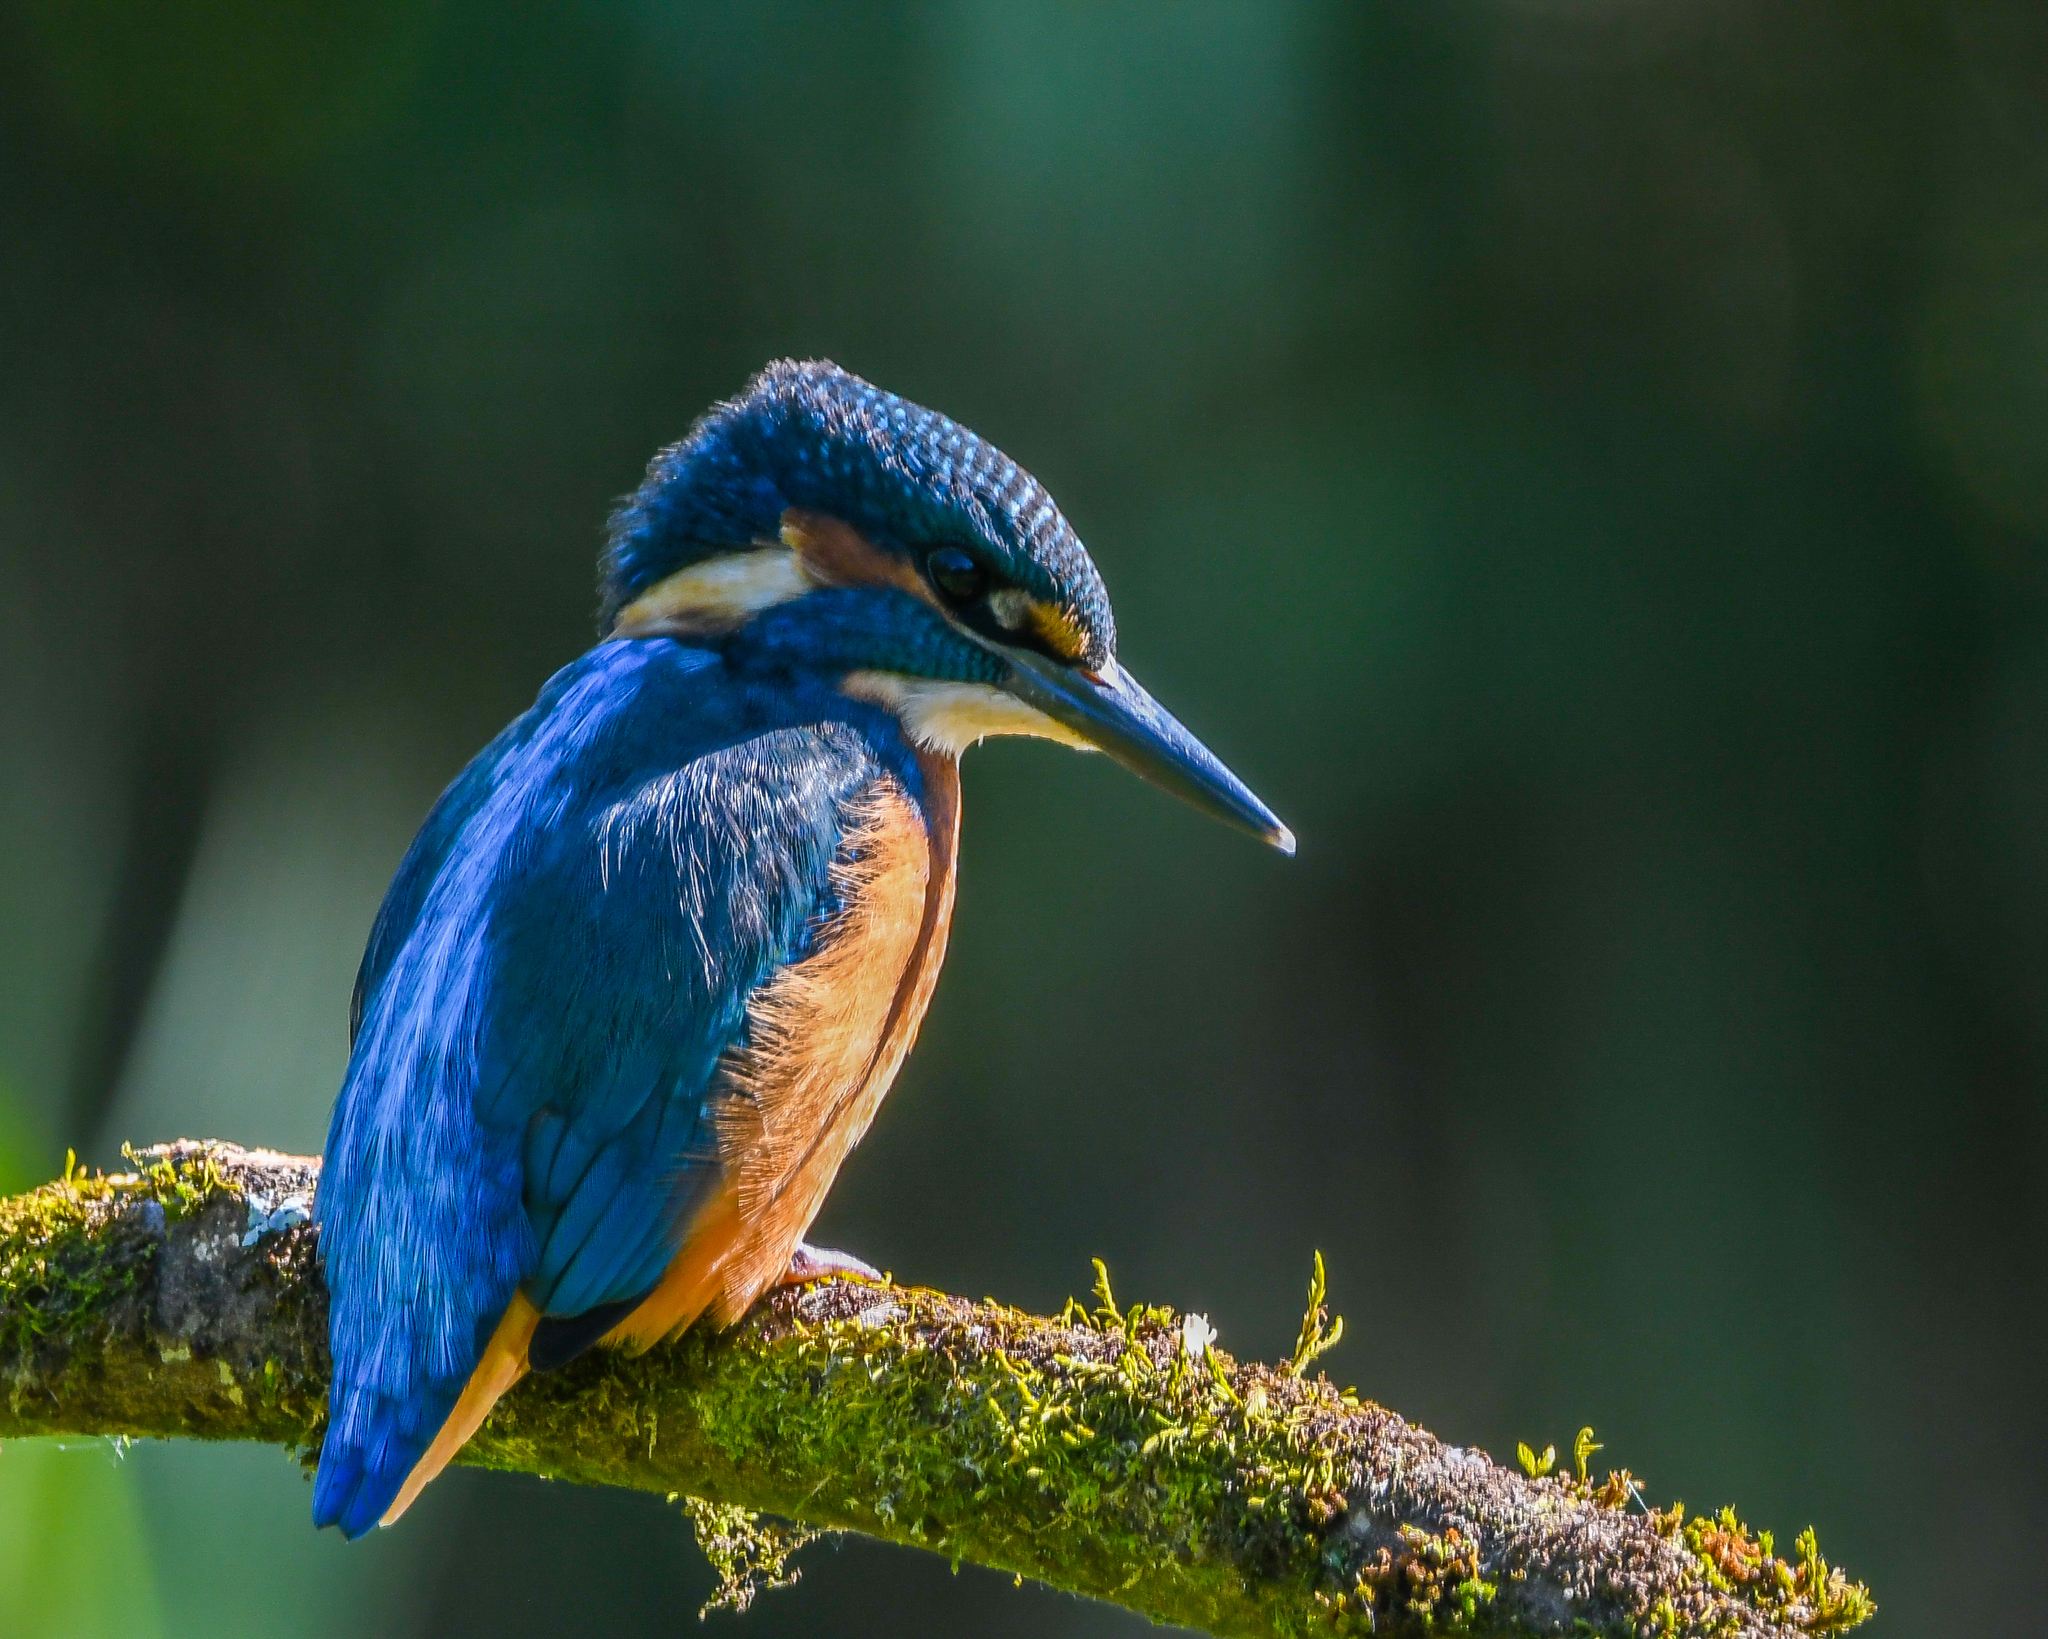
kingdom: Animalia
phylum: Chordata
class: Aves
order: Coraciiformes
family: Alcedinidae
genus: Alcedo
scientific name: Alcedo atthis
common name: Common kingfisher
